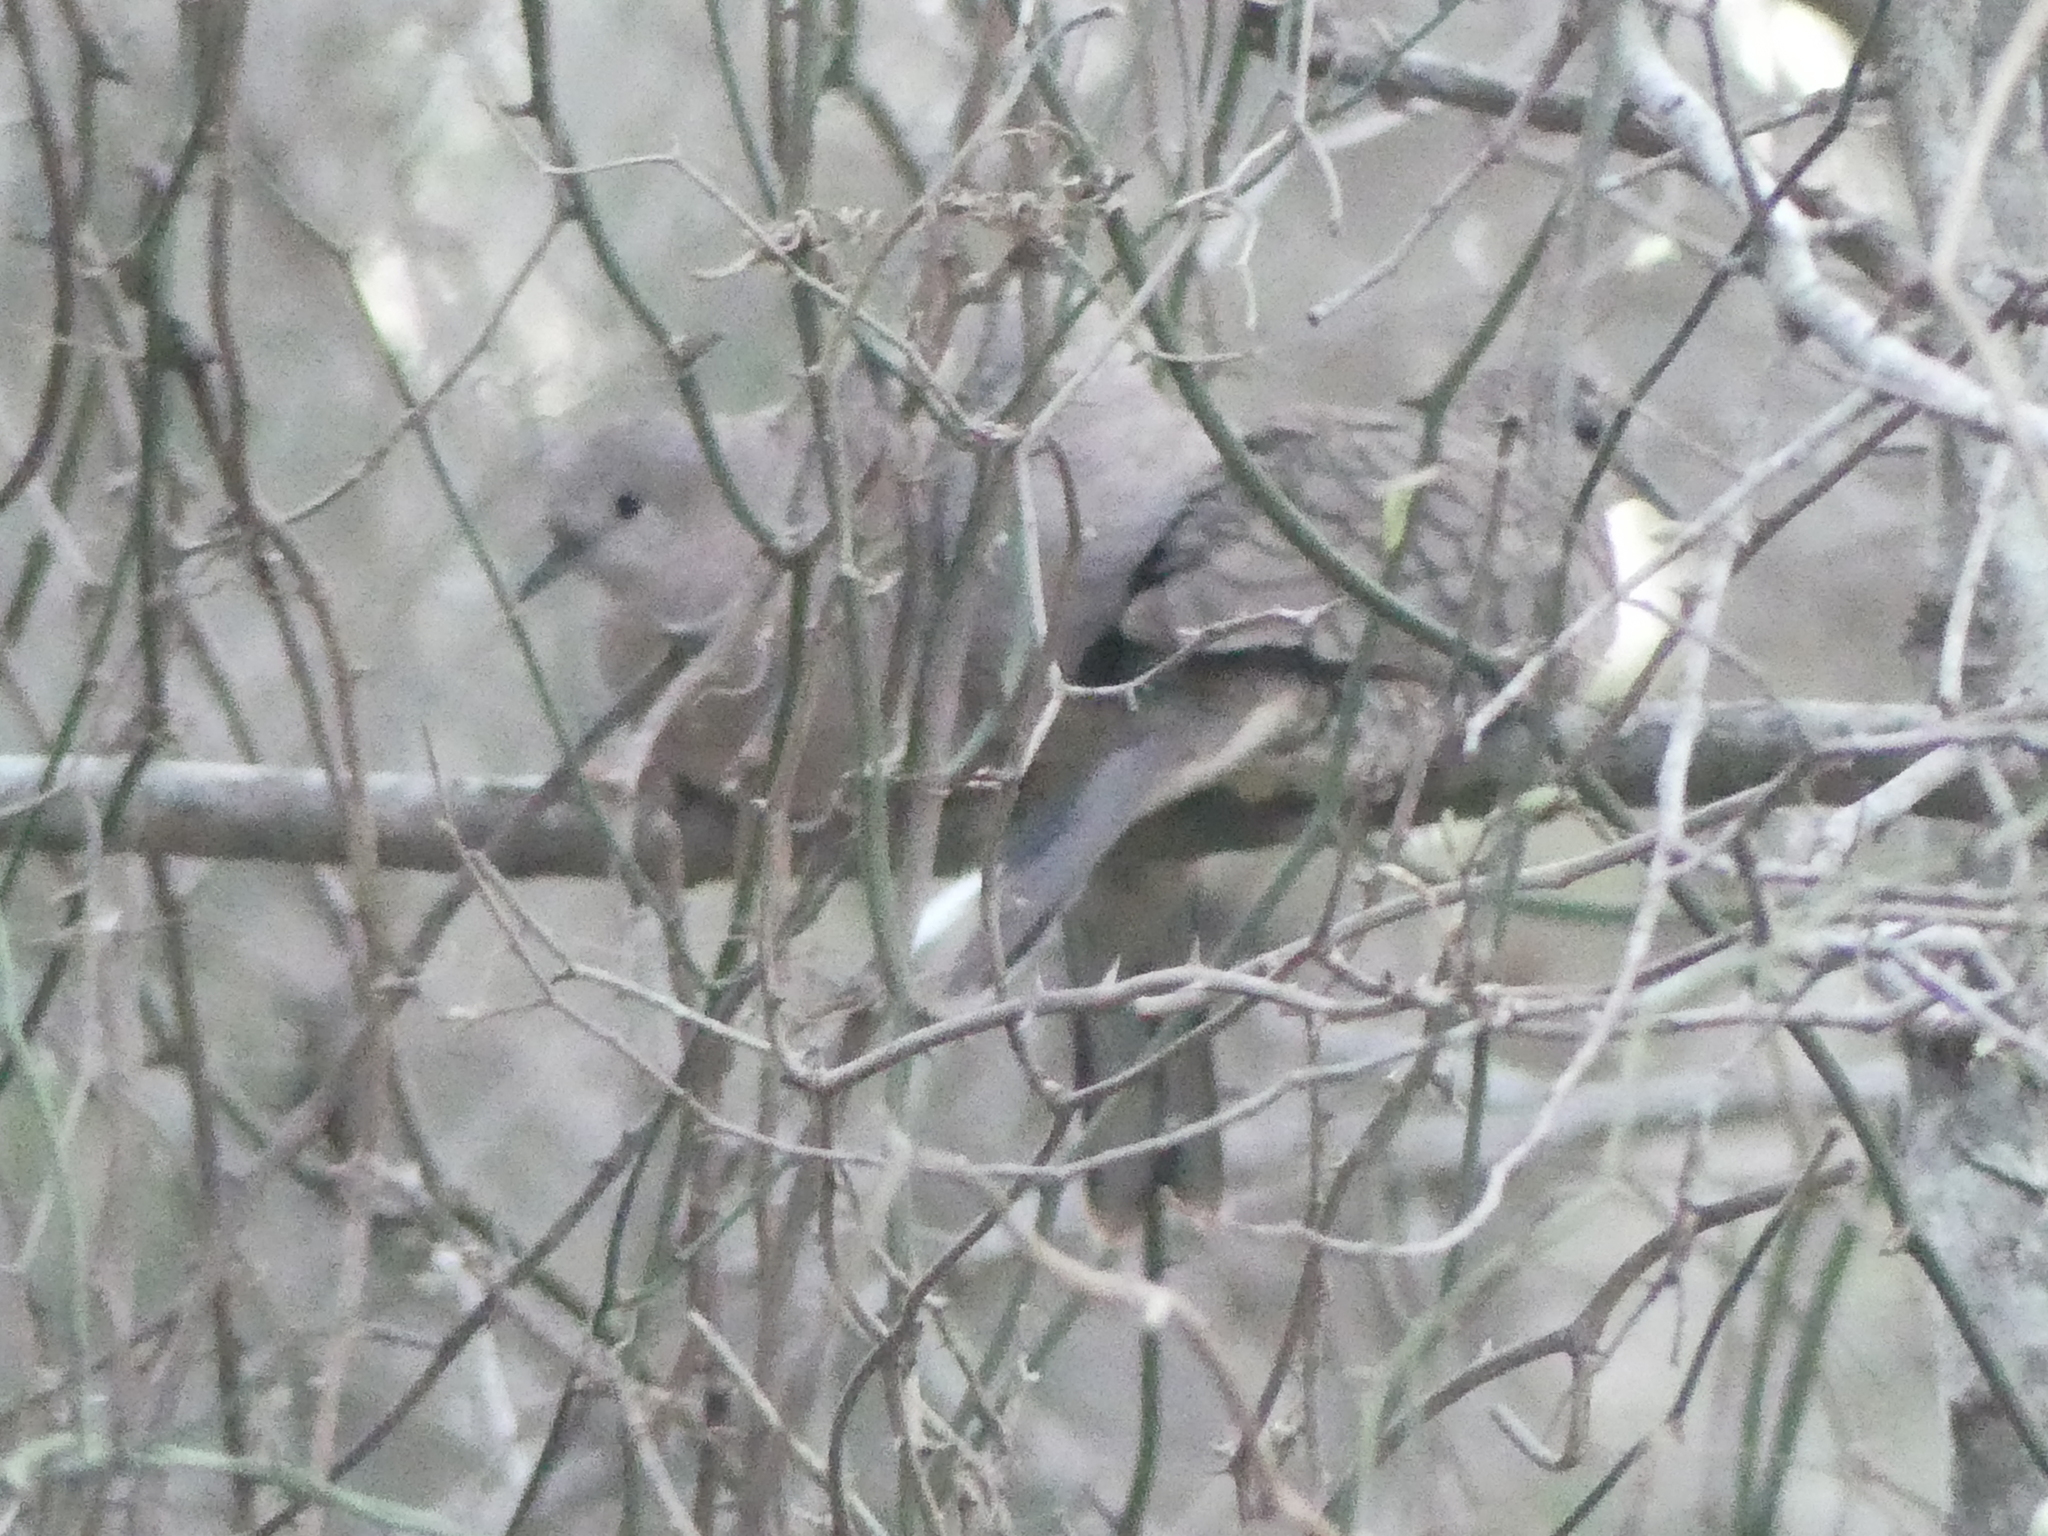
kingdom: Animalia
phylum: Chordata
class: Aves
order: Columbiformes
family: Columbidae
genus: Columbina
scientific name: Columbina inca
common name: Inca dove
